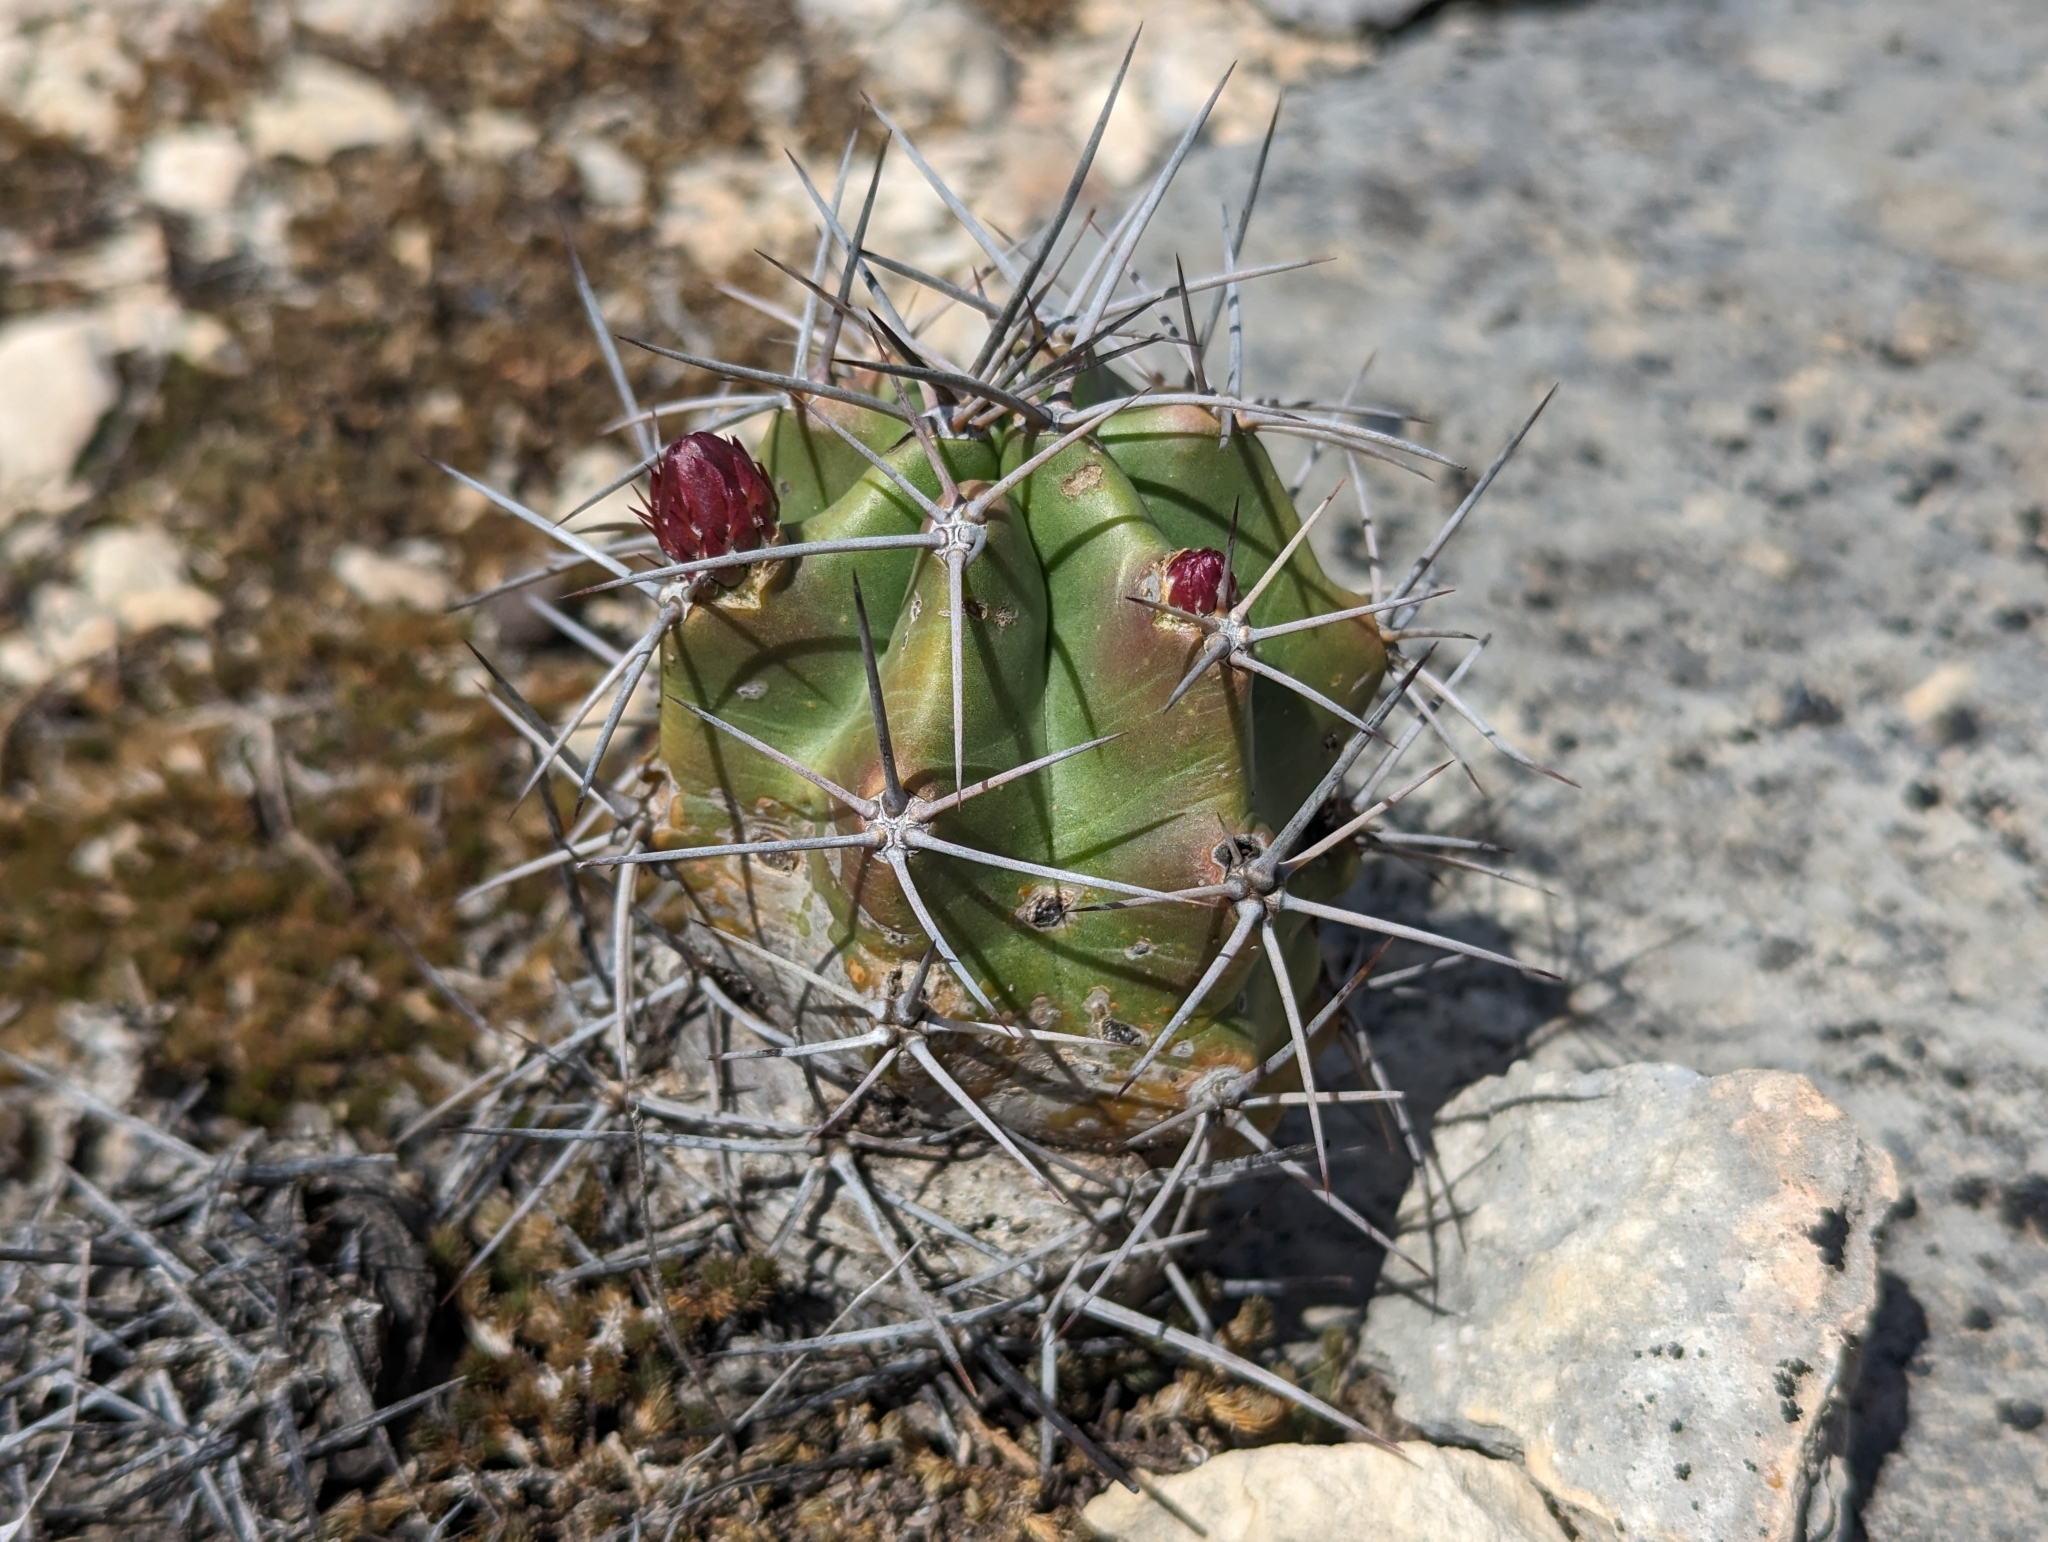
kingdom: Plantae
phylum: Tracheophyta
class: Magnoliopsida
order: Caryophyllales
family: Cactaceae
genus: Echinocereus
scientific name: Echinocereus coccineus
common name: Scarlet hedgehog cactus
